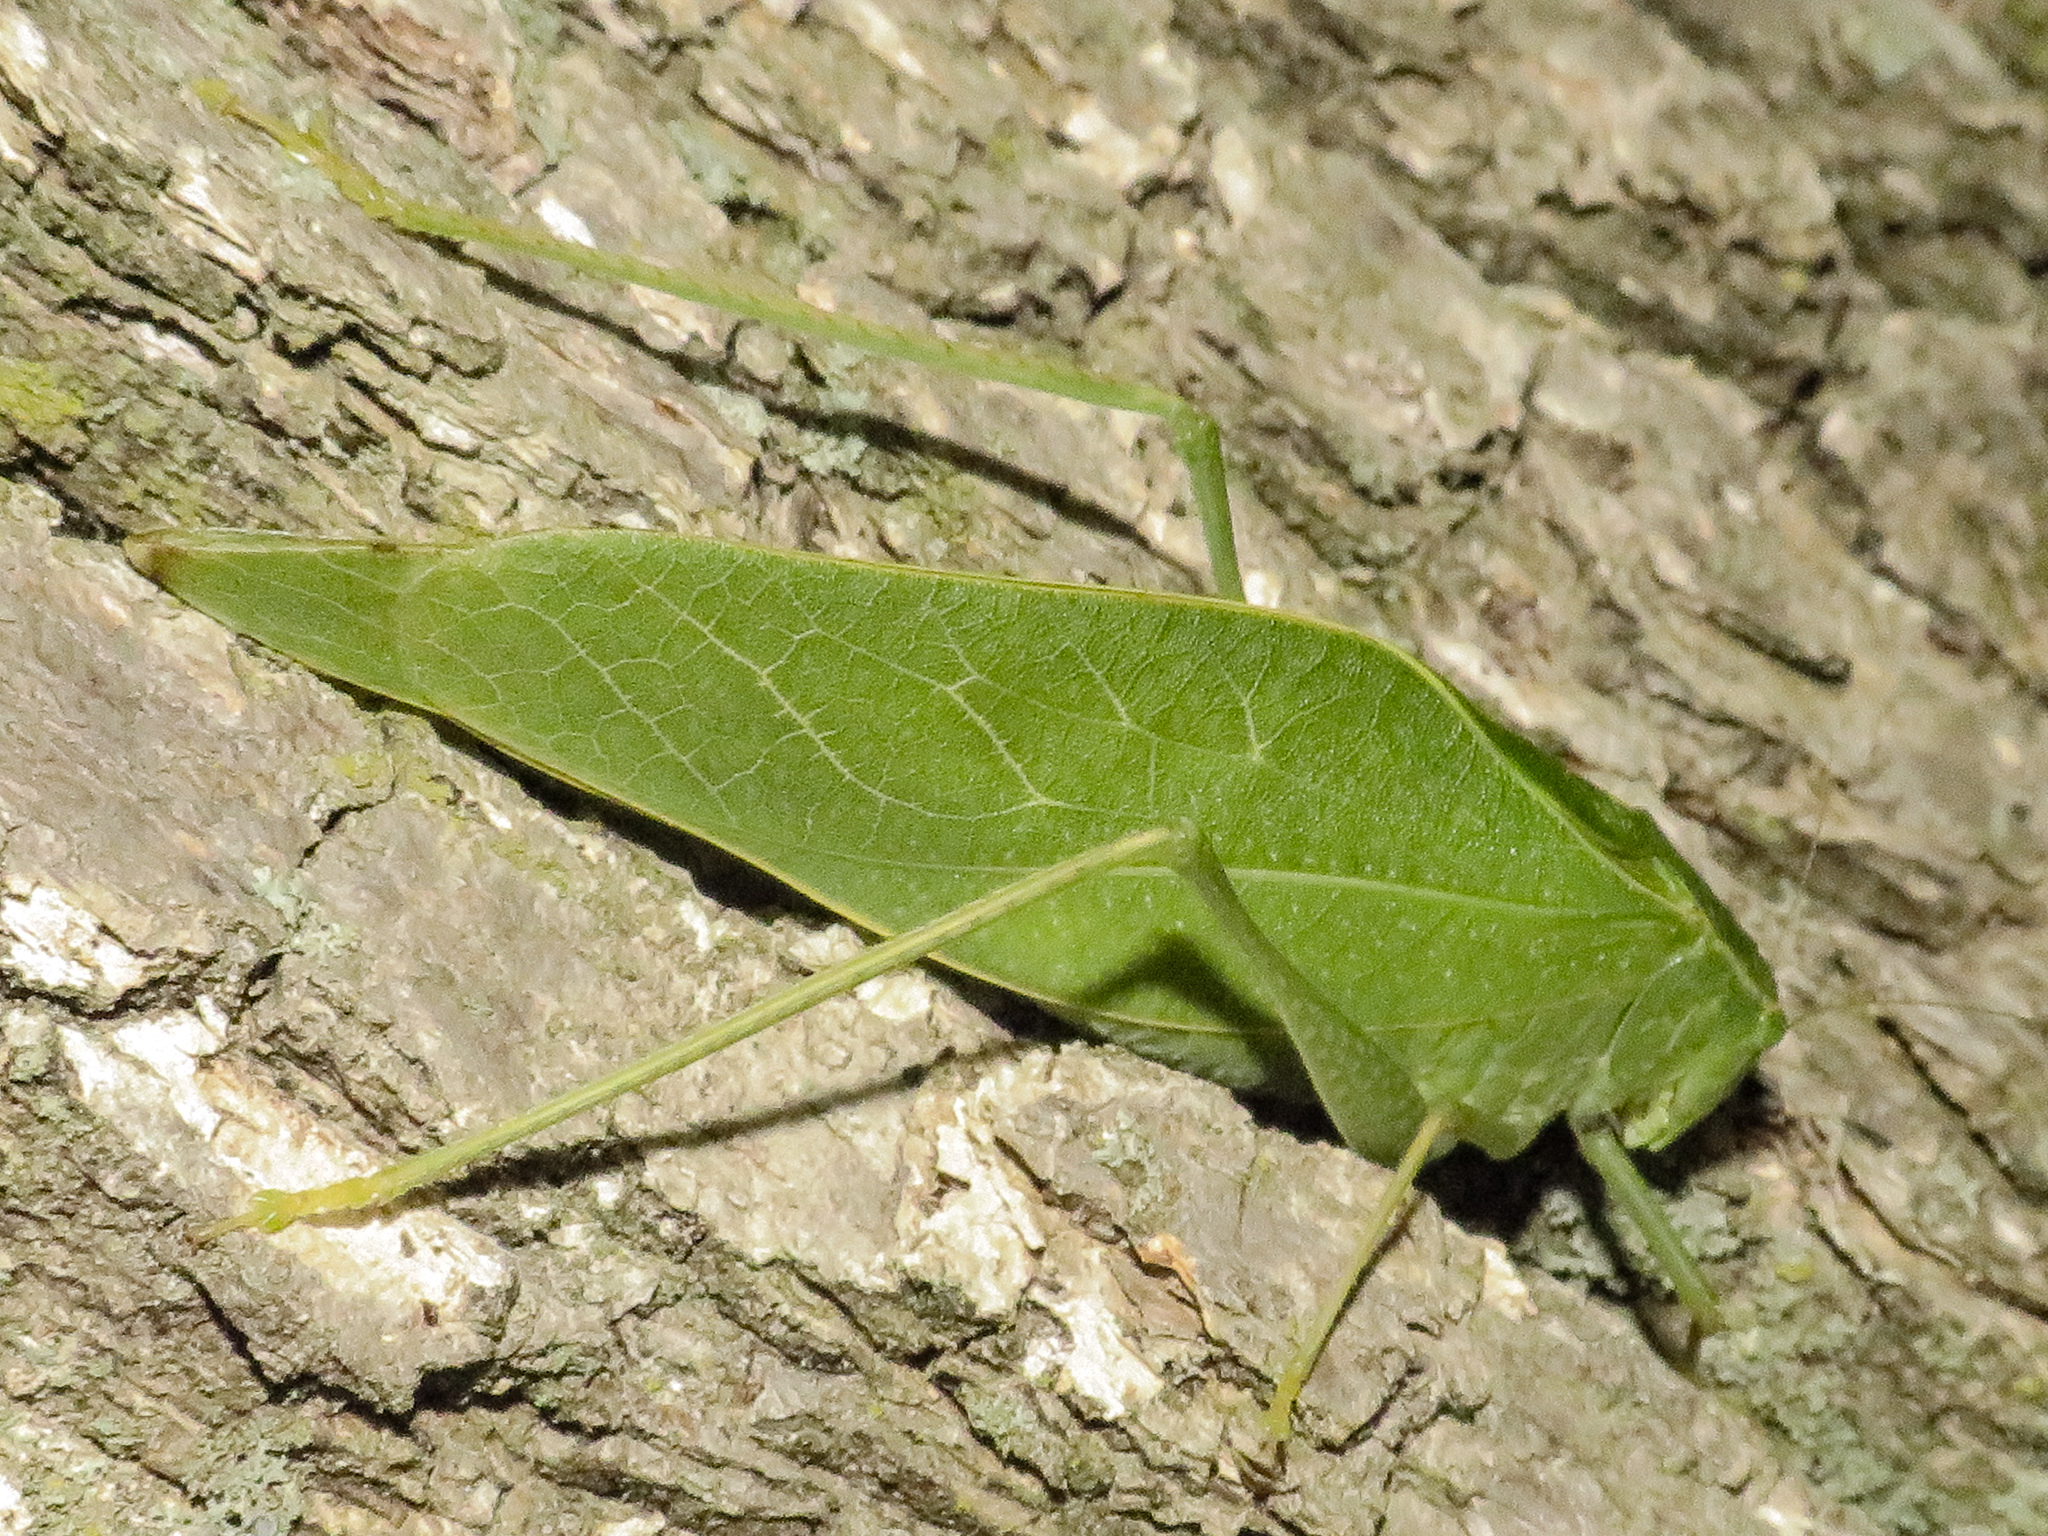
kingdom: Animalia
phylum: Arthropoda
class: Insecta
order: Orthoptera
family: Tettigoniidae
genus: Microcentrum
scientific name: Microcentrum rhombifolium
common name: Broad-winged katydid
